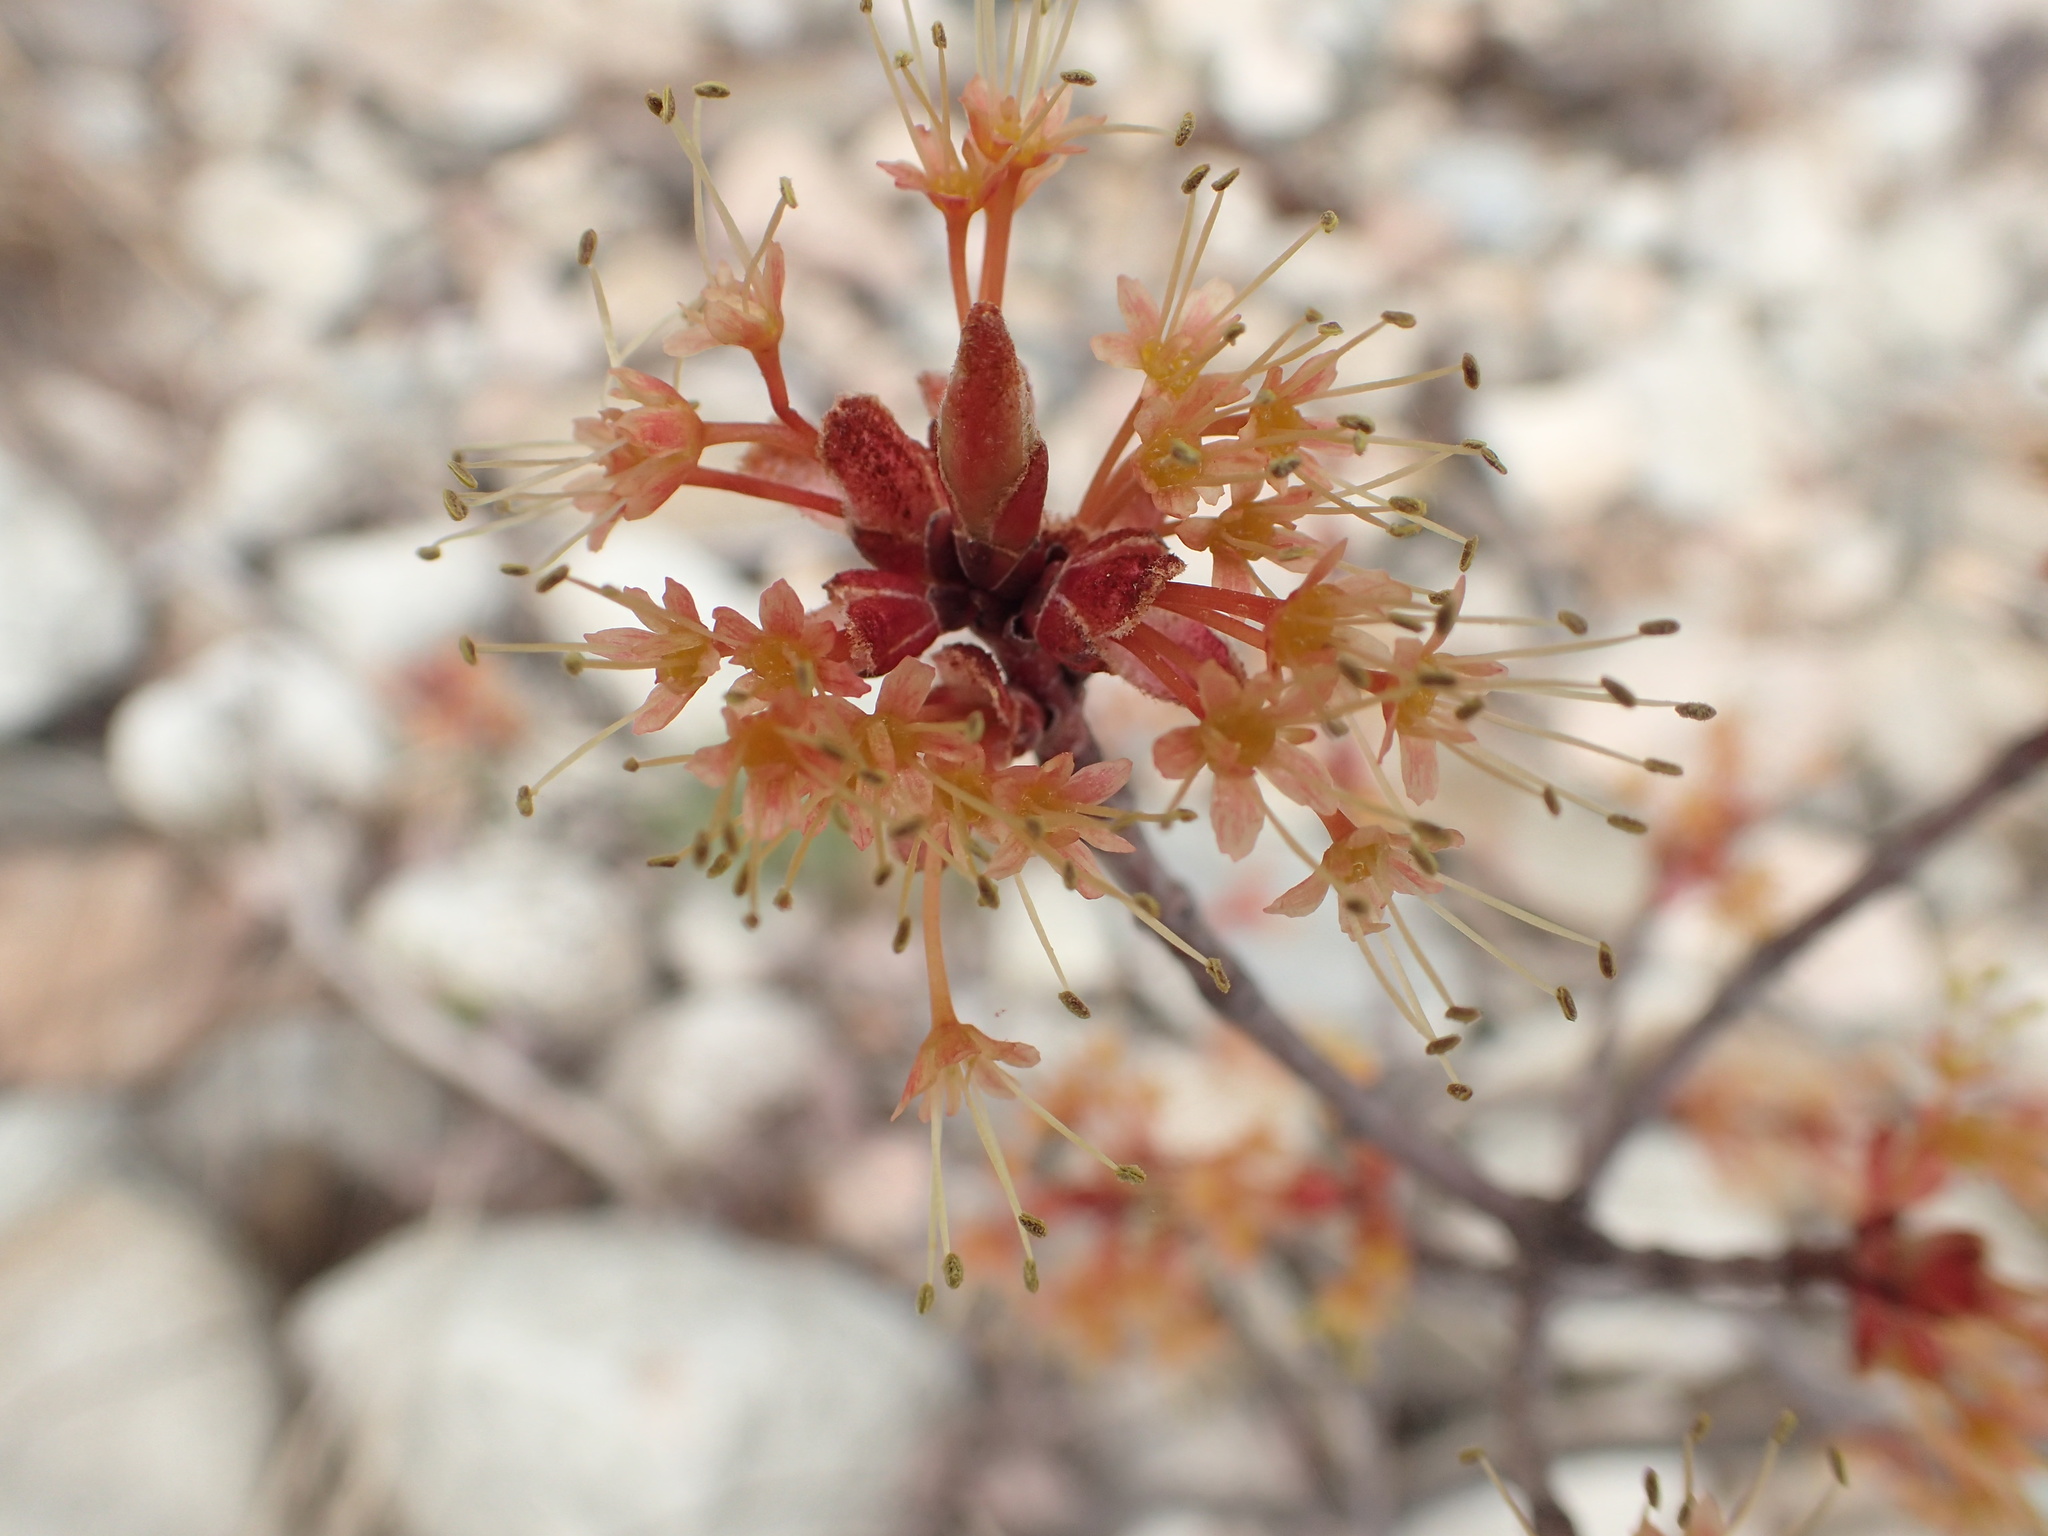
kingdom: Plantae
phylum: Tracheophyta
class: Magnoliopsida
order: Sapindales
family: Sapindaceae
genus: Acer
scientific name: Acer rubrum
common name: Red maple
